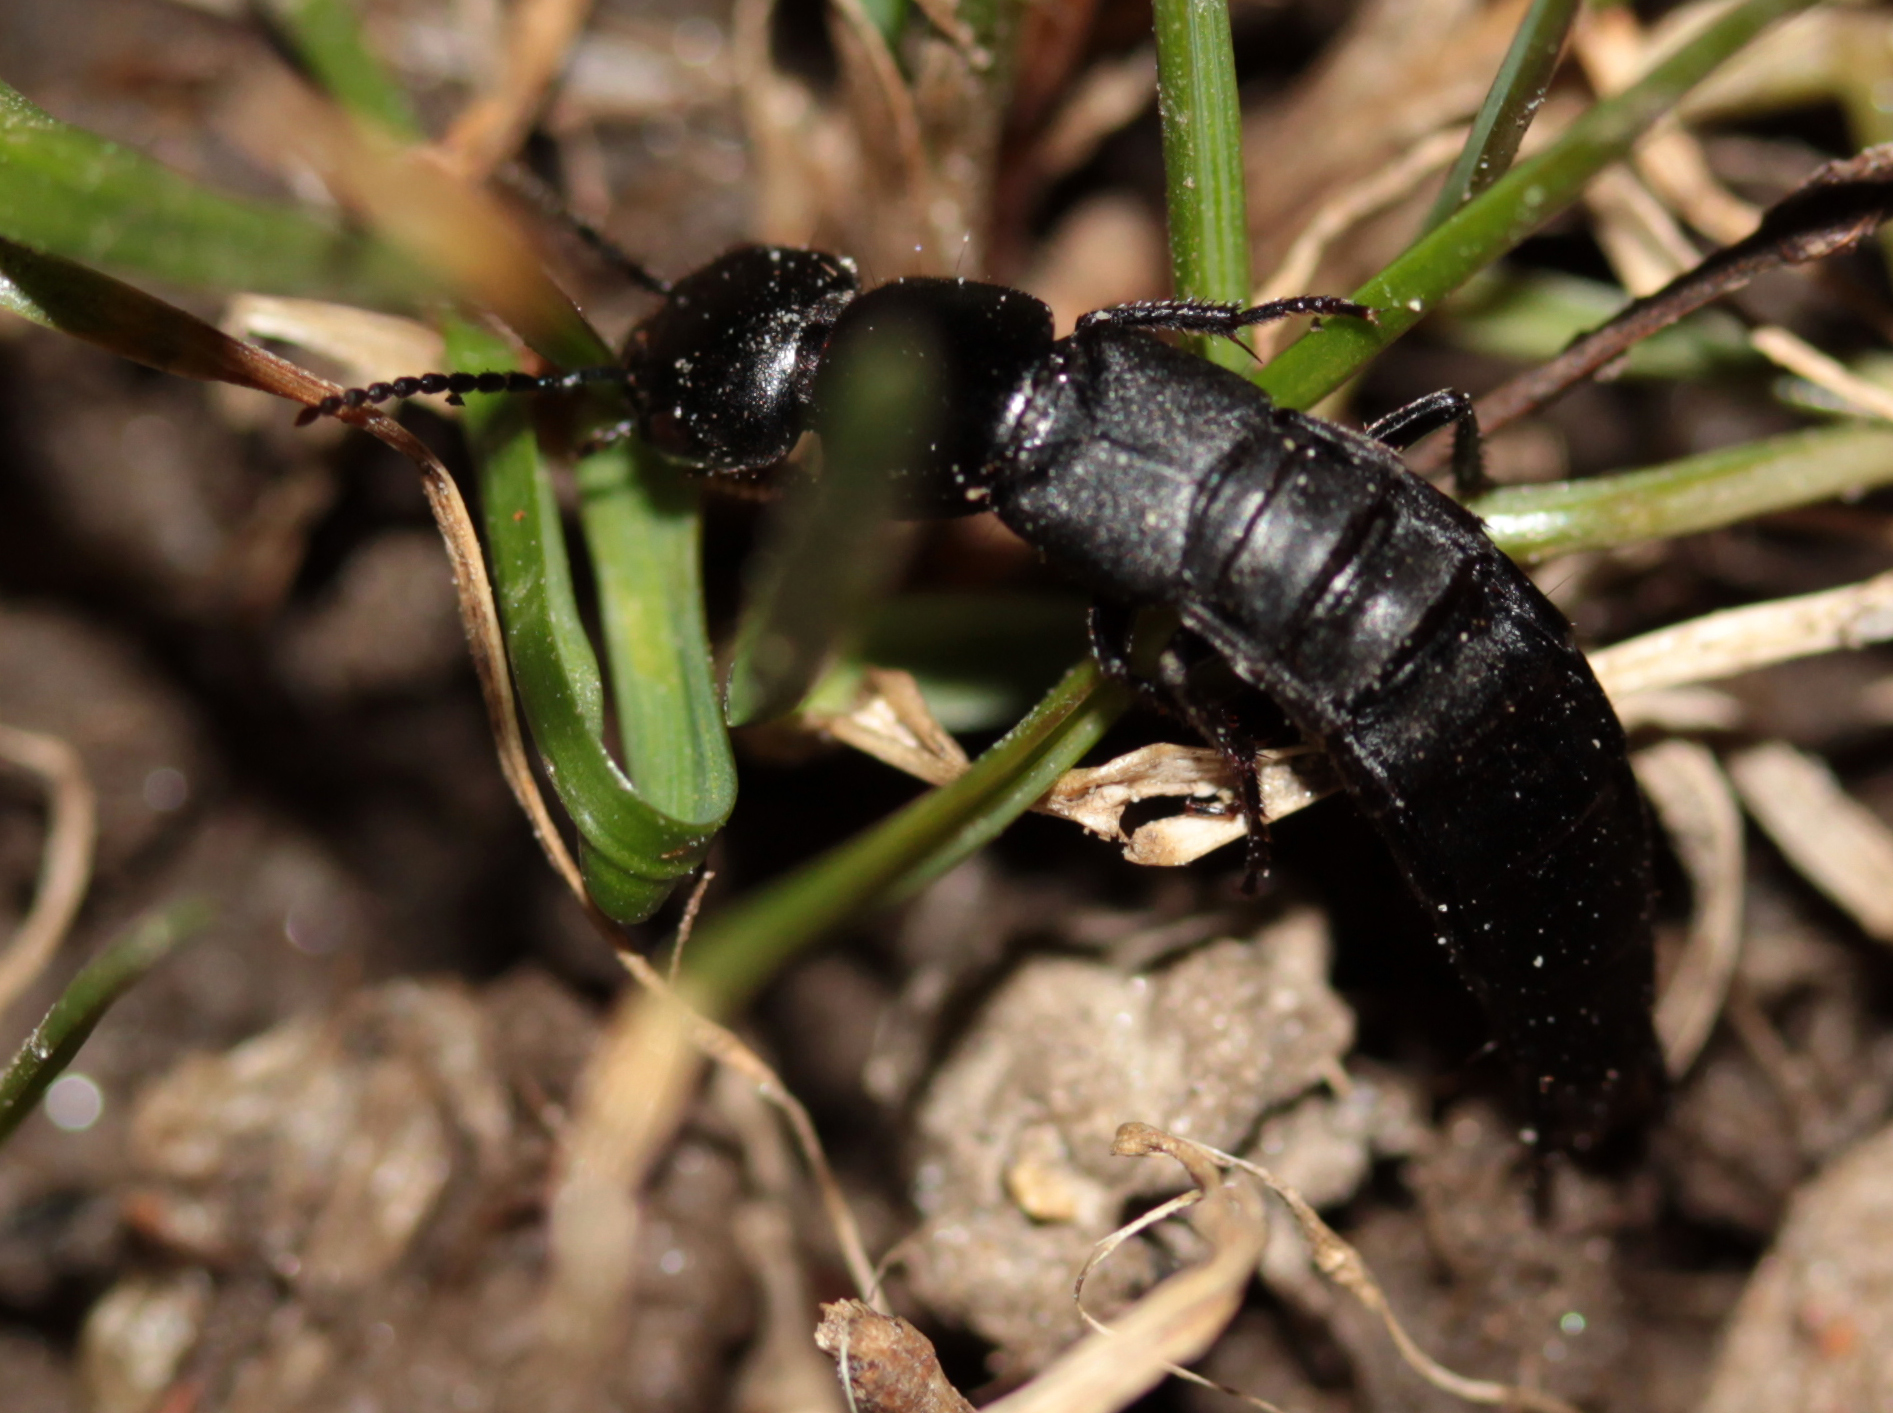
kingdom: Animalia
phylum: Arthropoda
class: Insecta
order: Coleoptera
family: Staphylinidae
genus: Ocypus
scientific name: Ocypus nitens
